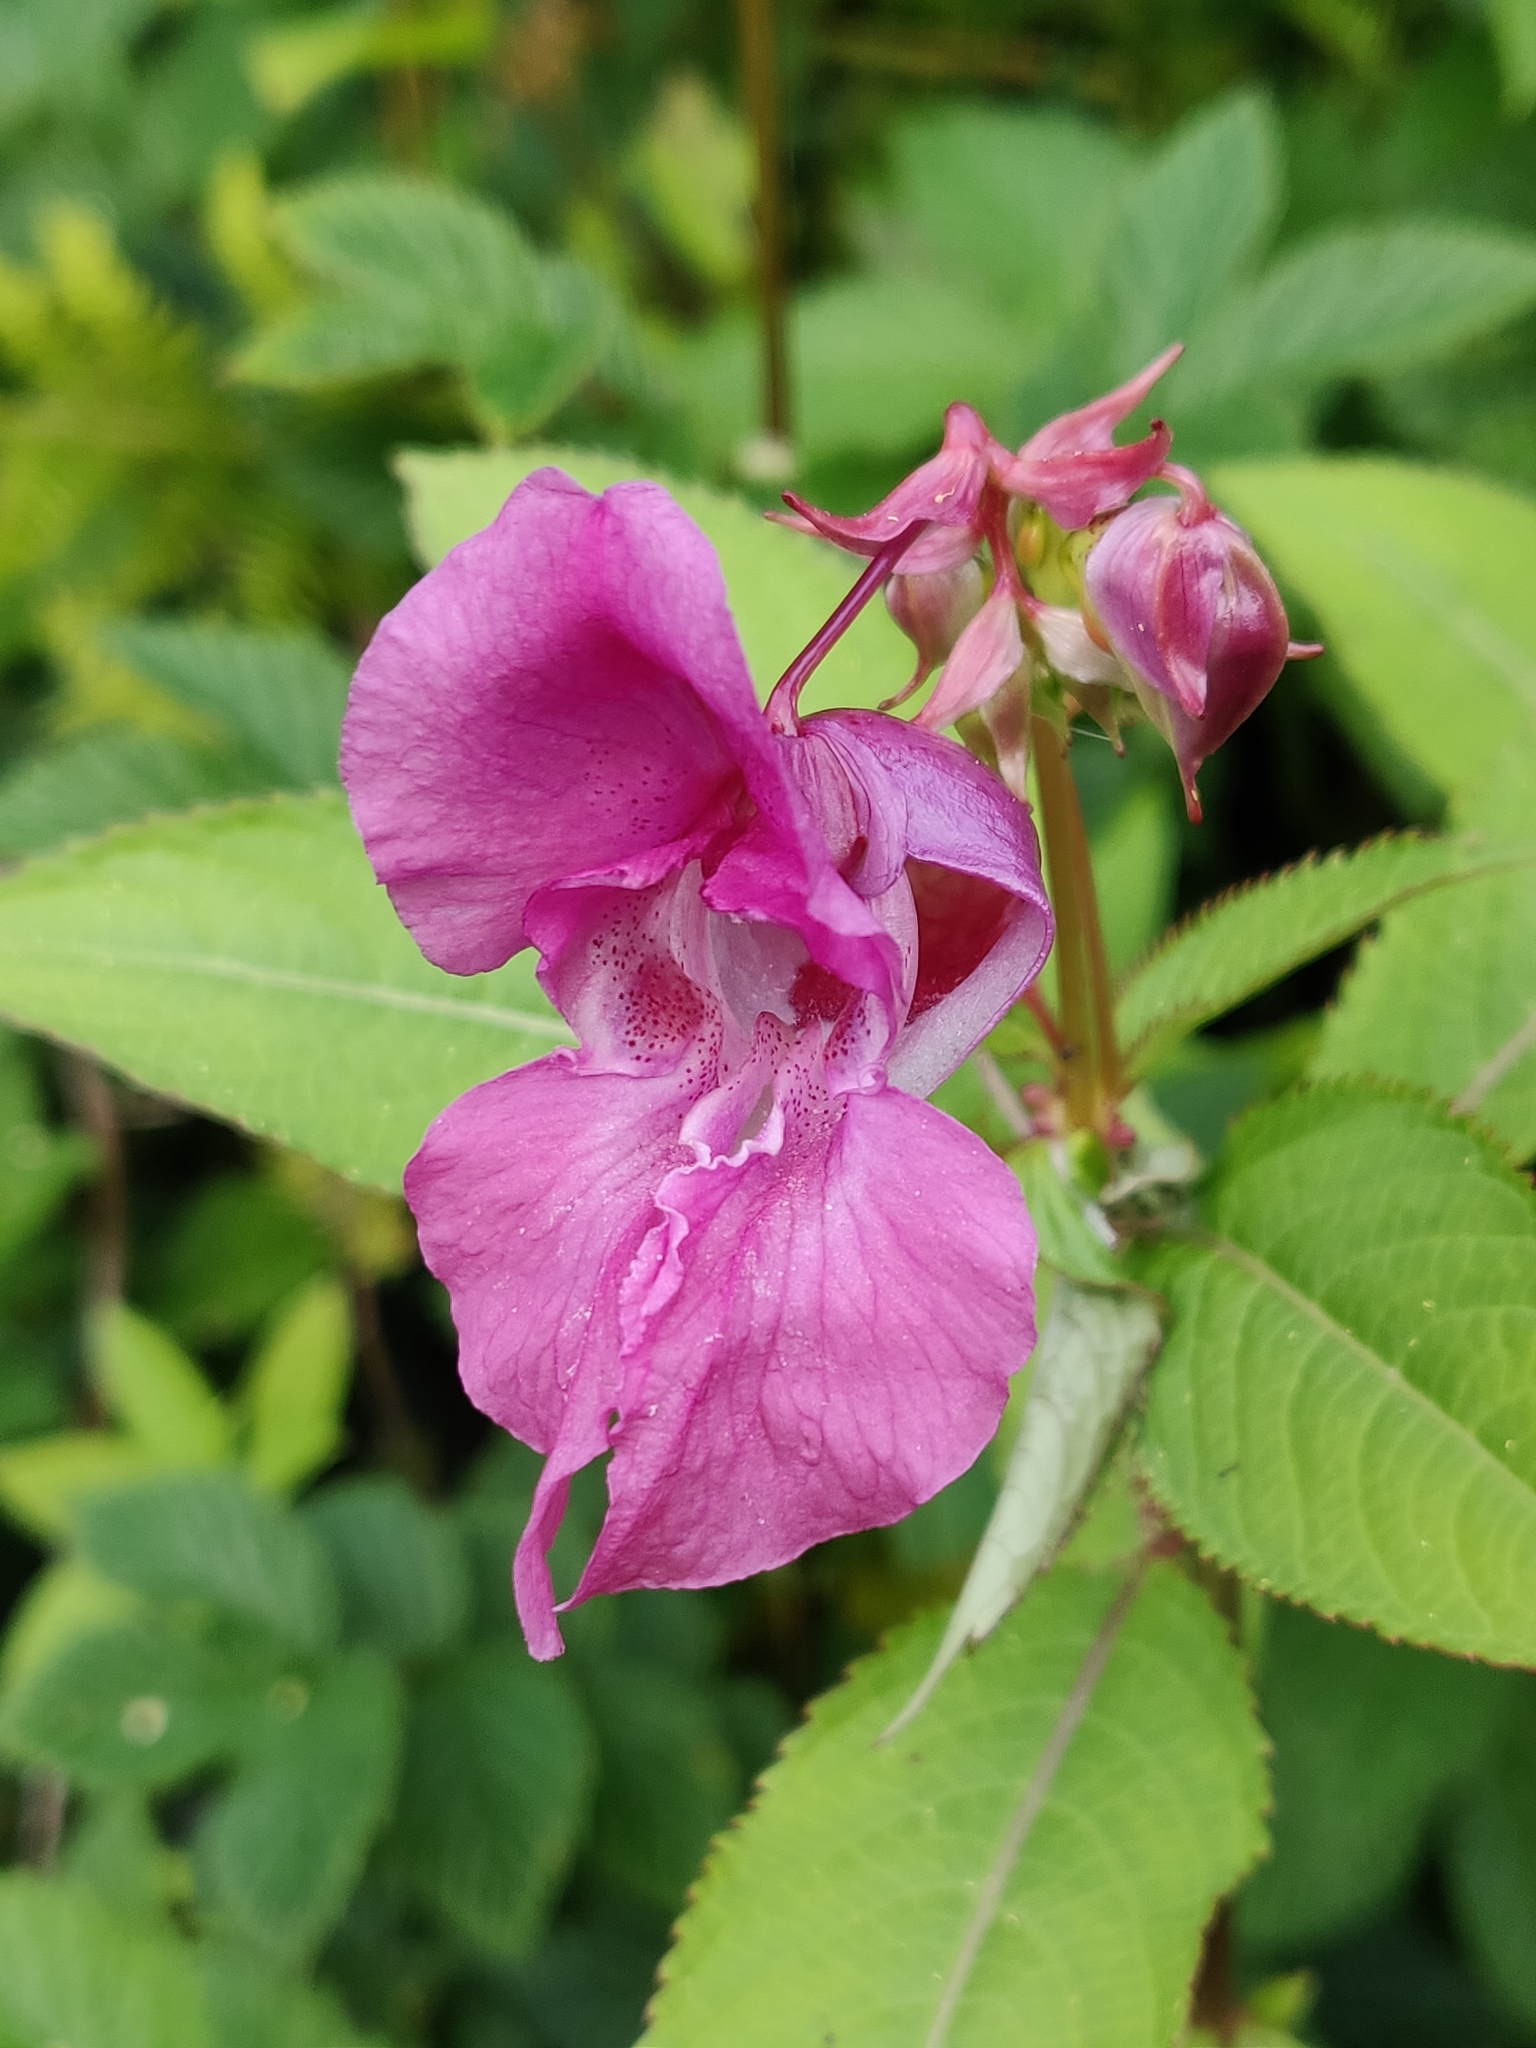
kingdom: Plantae
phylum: Tracheophyta
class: Magnoliopsida
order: Ericales
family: Balsaminaceae
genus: Impatiens
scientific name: Impatiens glandulifera
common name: Himalayan balsam
